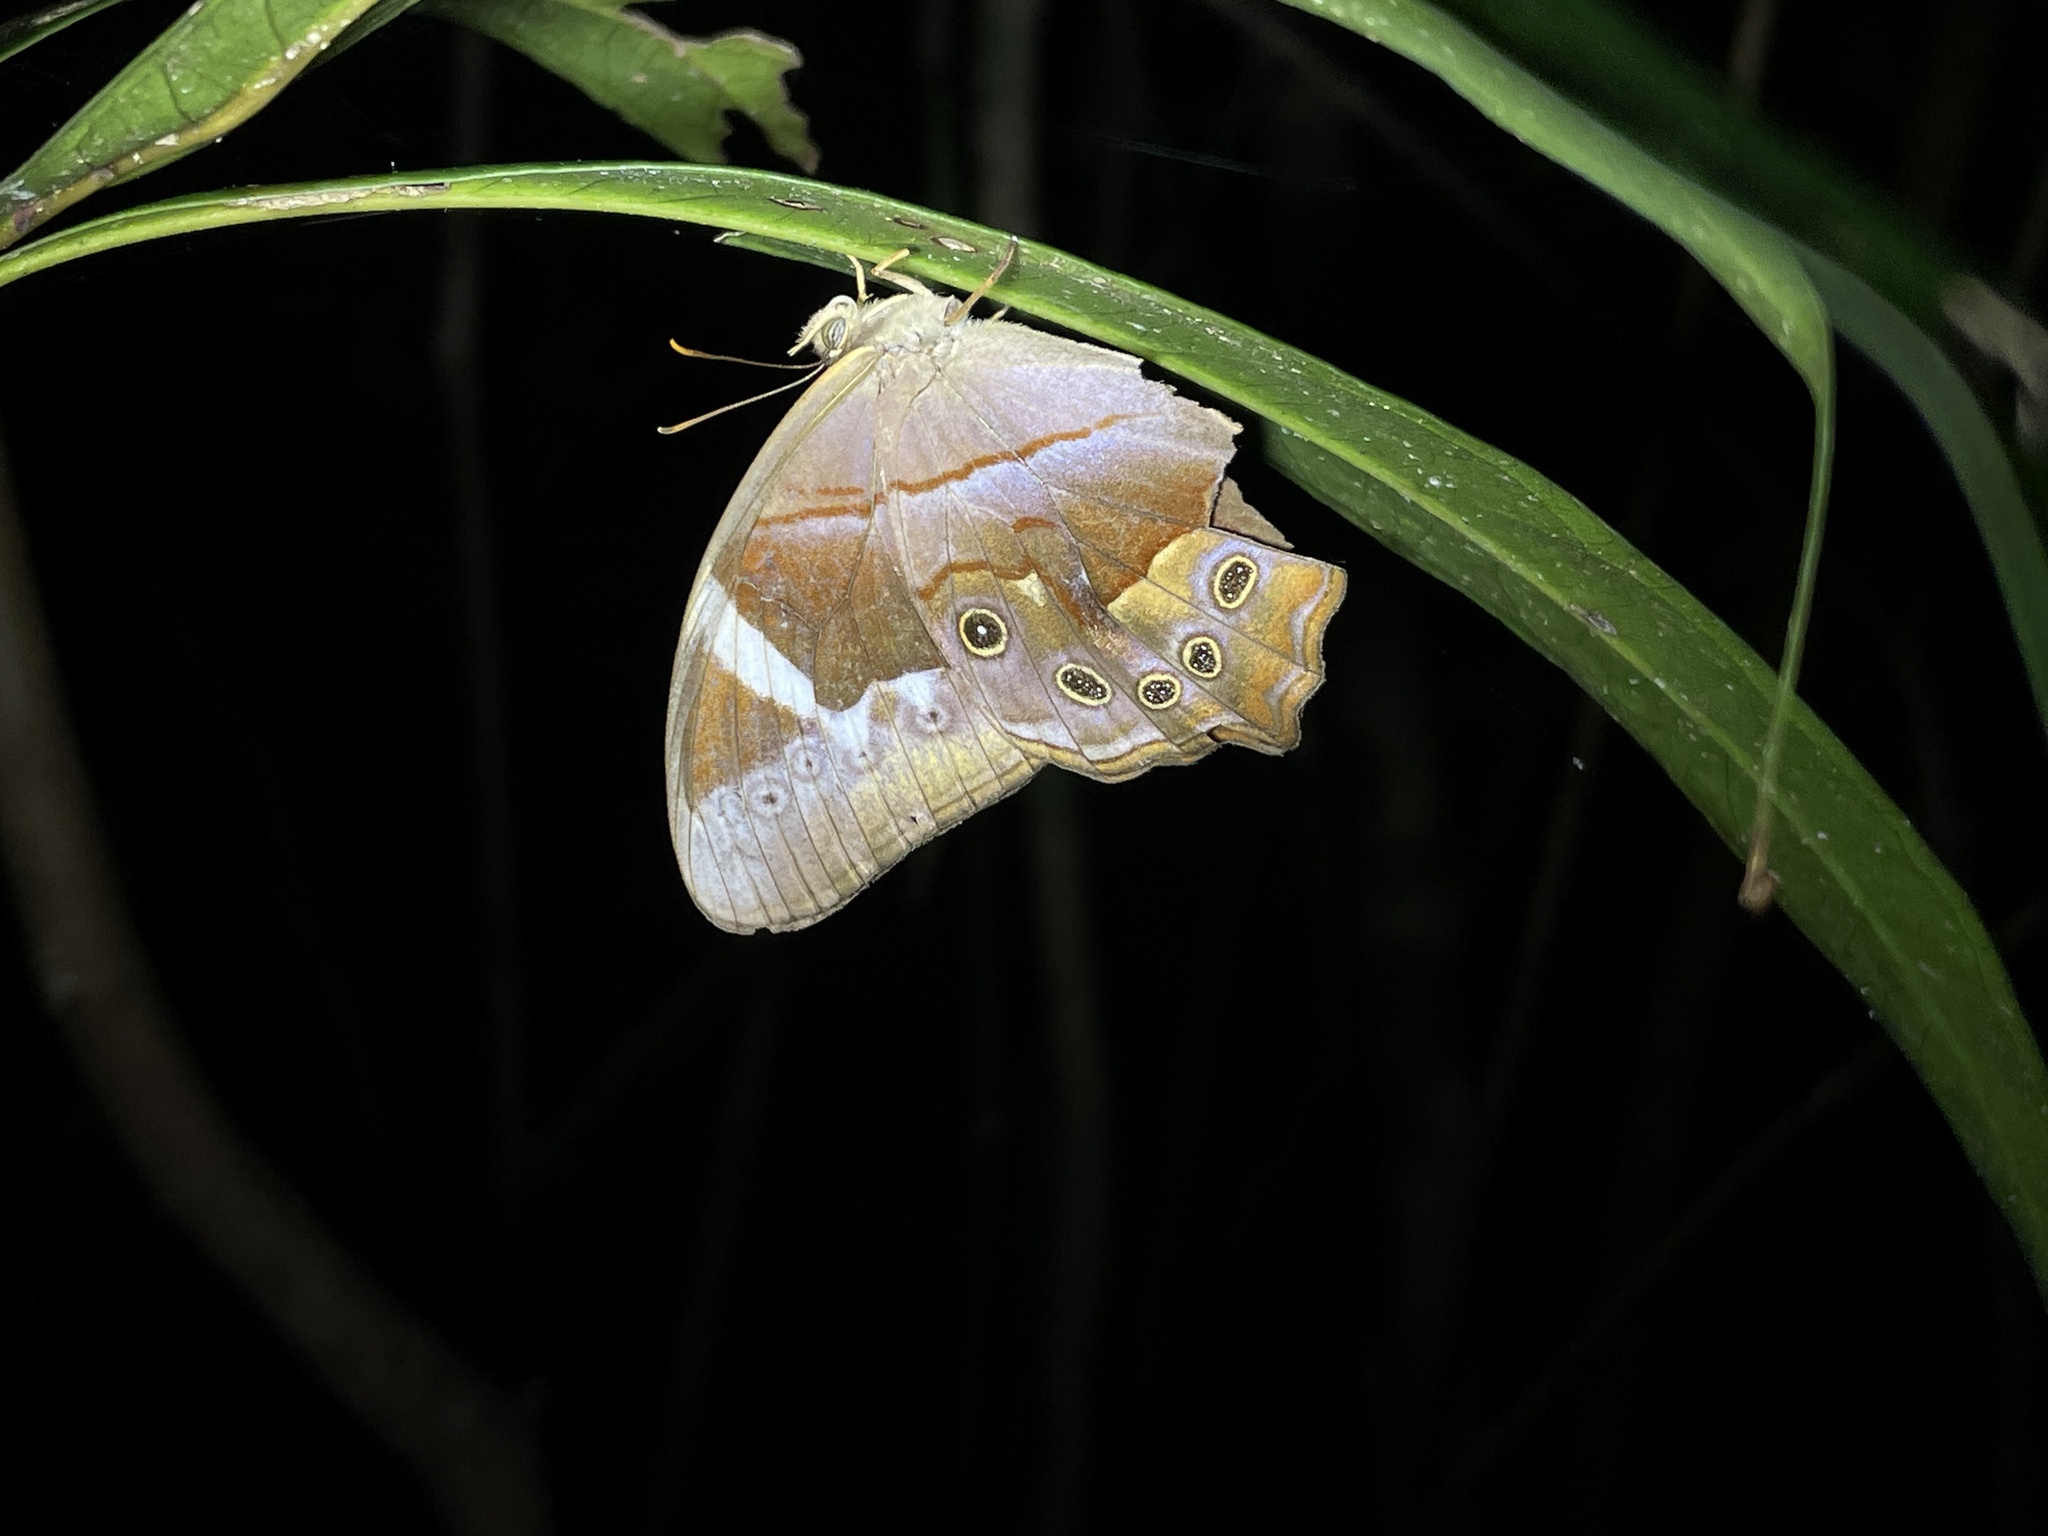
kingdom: Animalia
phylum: Arthropoda
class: Insecta
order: Lepidoptera
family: Nymphalidae
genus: Lethe
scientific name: Lethe chandica
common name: Angled red forester
